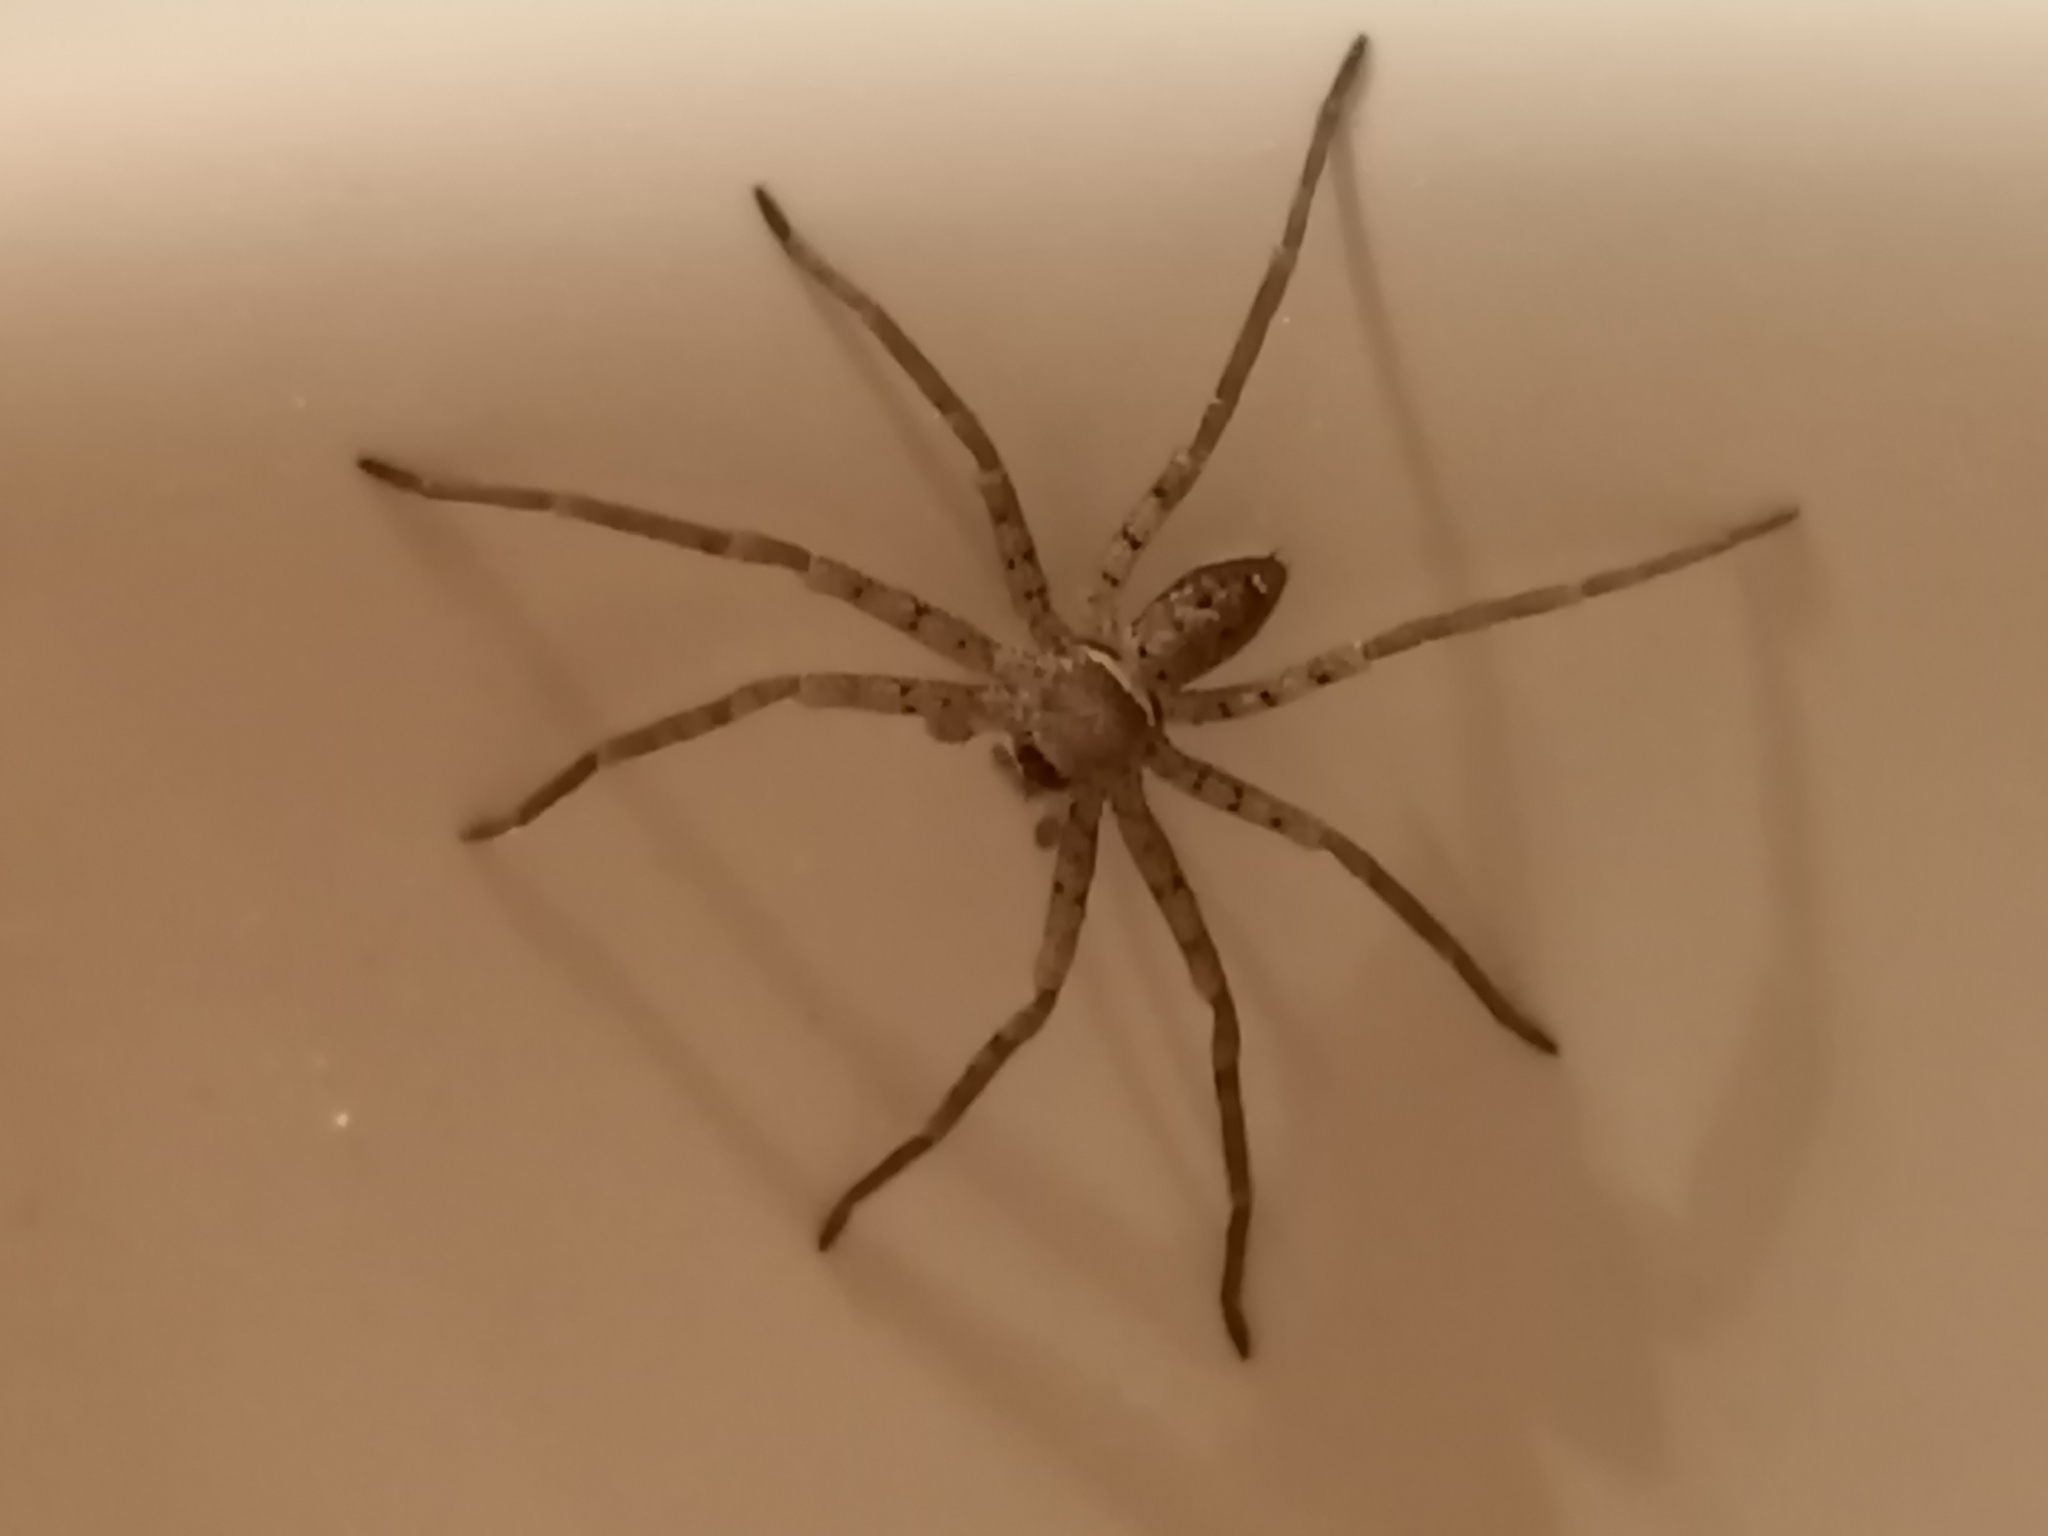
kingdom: Animalia
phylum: Arthropoda
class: Arachnida
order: Araneae
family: Sparassidae
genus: Heteropoda
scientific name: Heteropoda venatoria
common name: Huntsman spider
